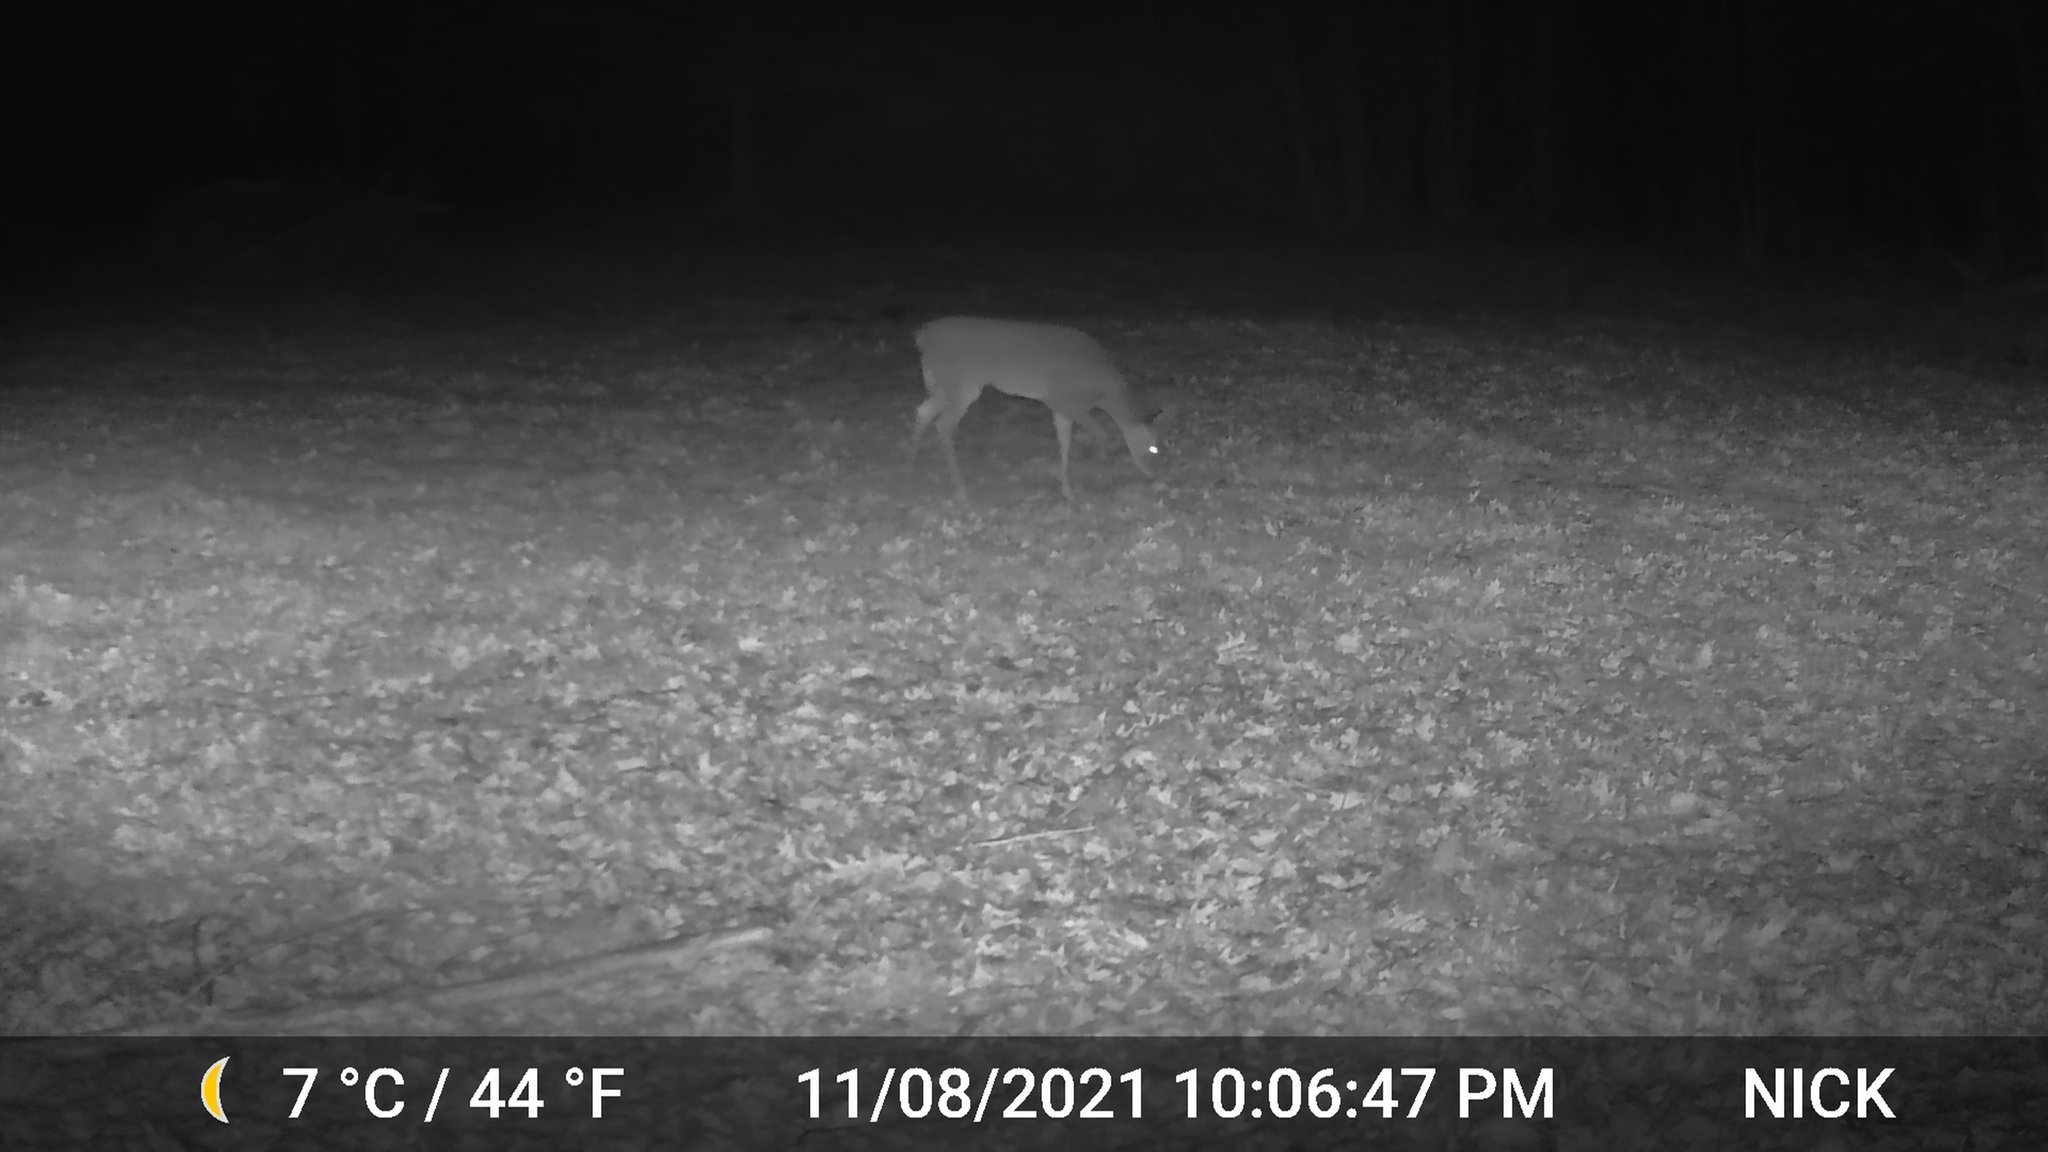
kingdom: Animalia
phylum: Chordata
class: Mammalia
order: Artiodactyla
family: Cervidae
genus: Odocoileus
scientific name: Odocoileus virginianus
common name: White-tailed deer
